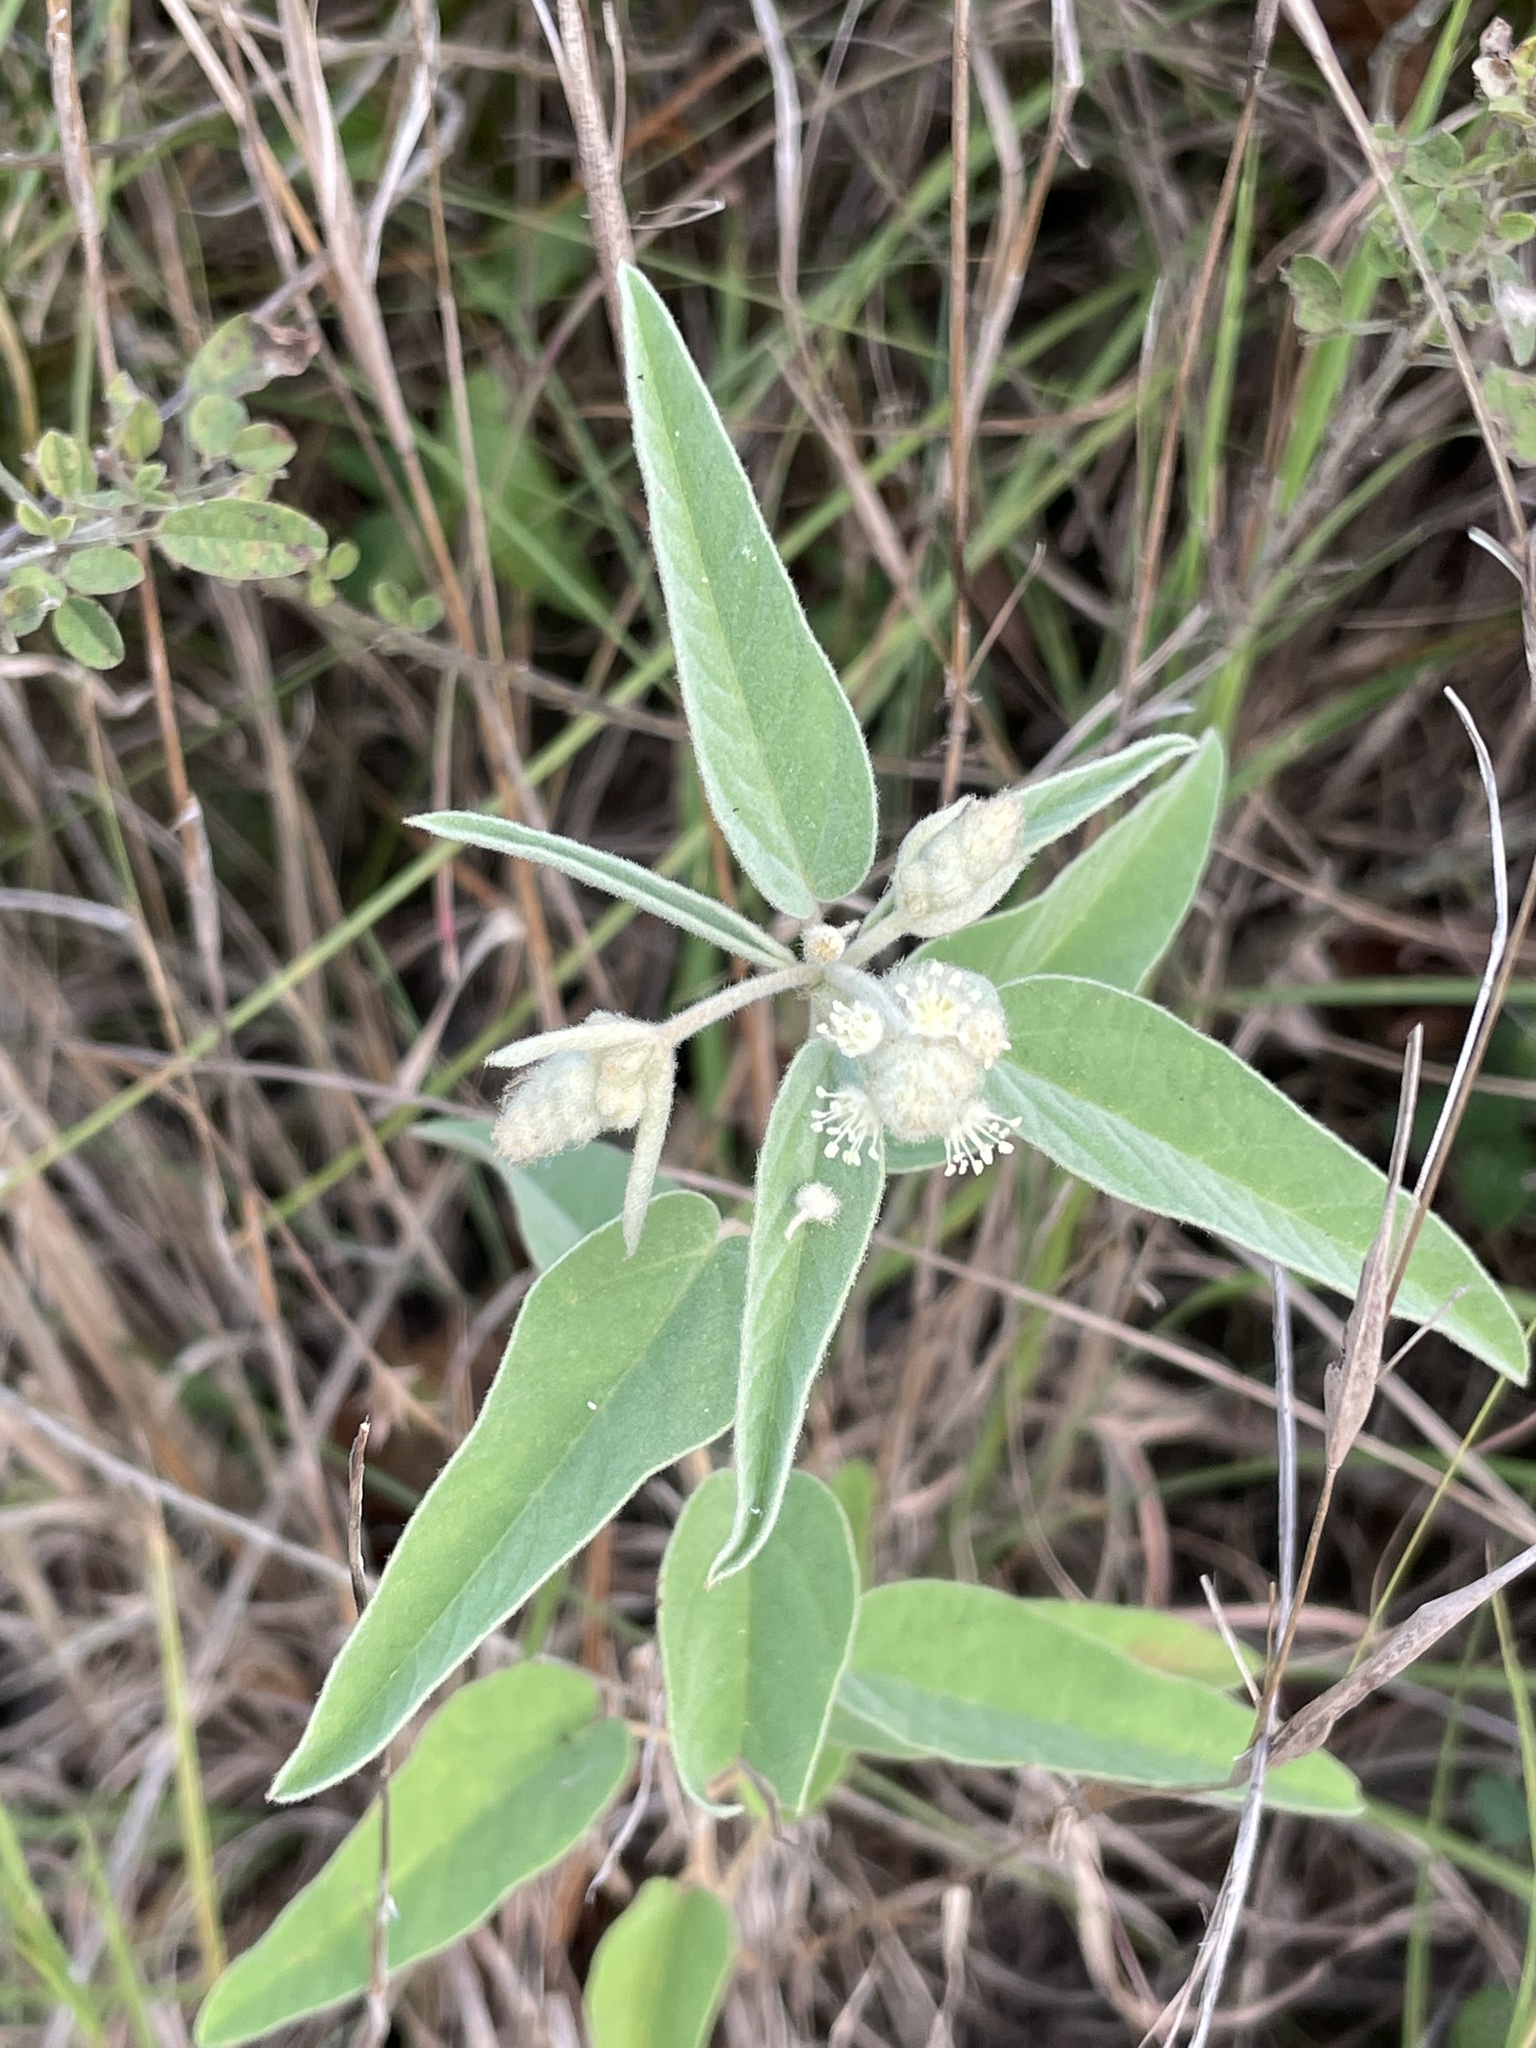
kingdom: Plantae
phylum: Tracheophyta
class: Magnoliopsida
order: Malpighiales
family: Euphorbiaceae
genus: Croton
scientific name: Croton lindheimeri
